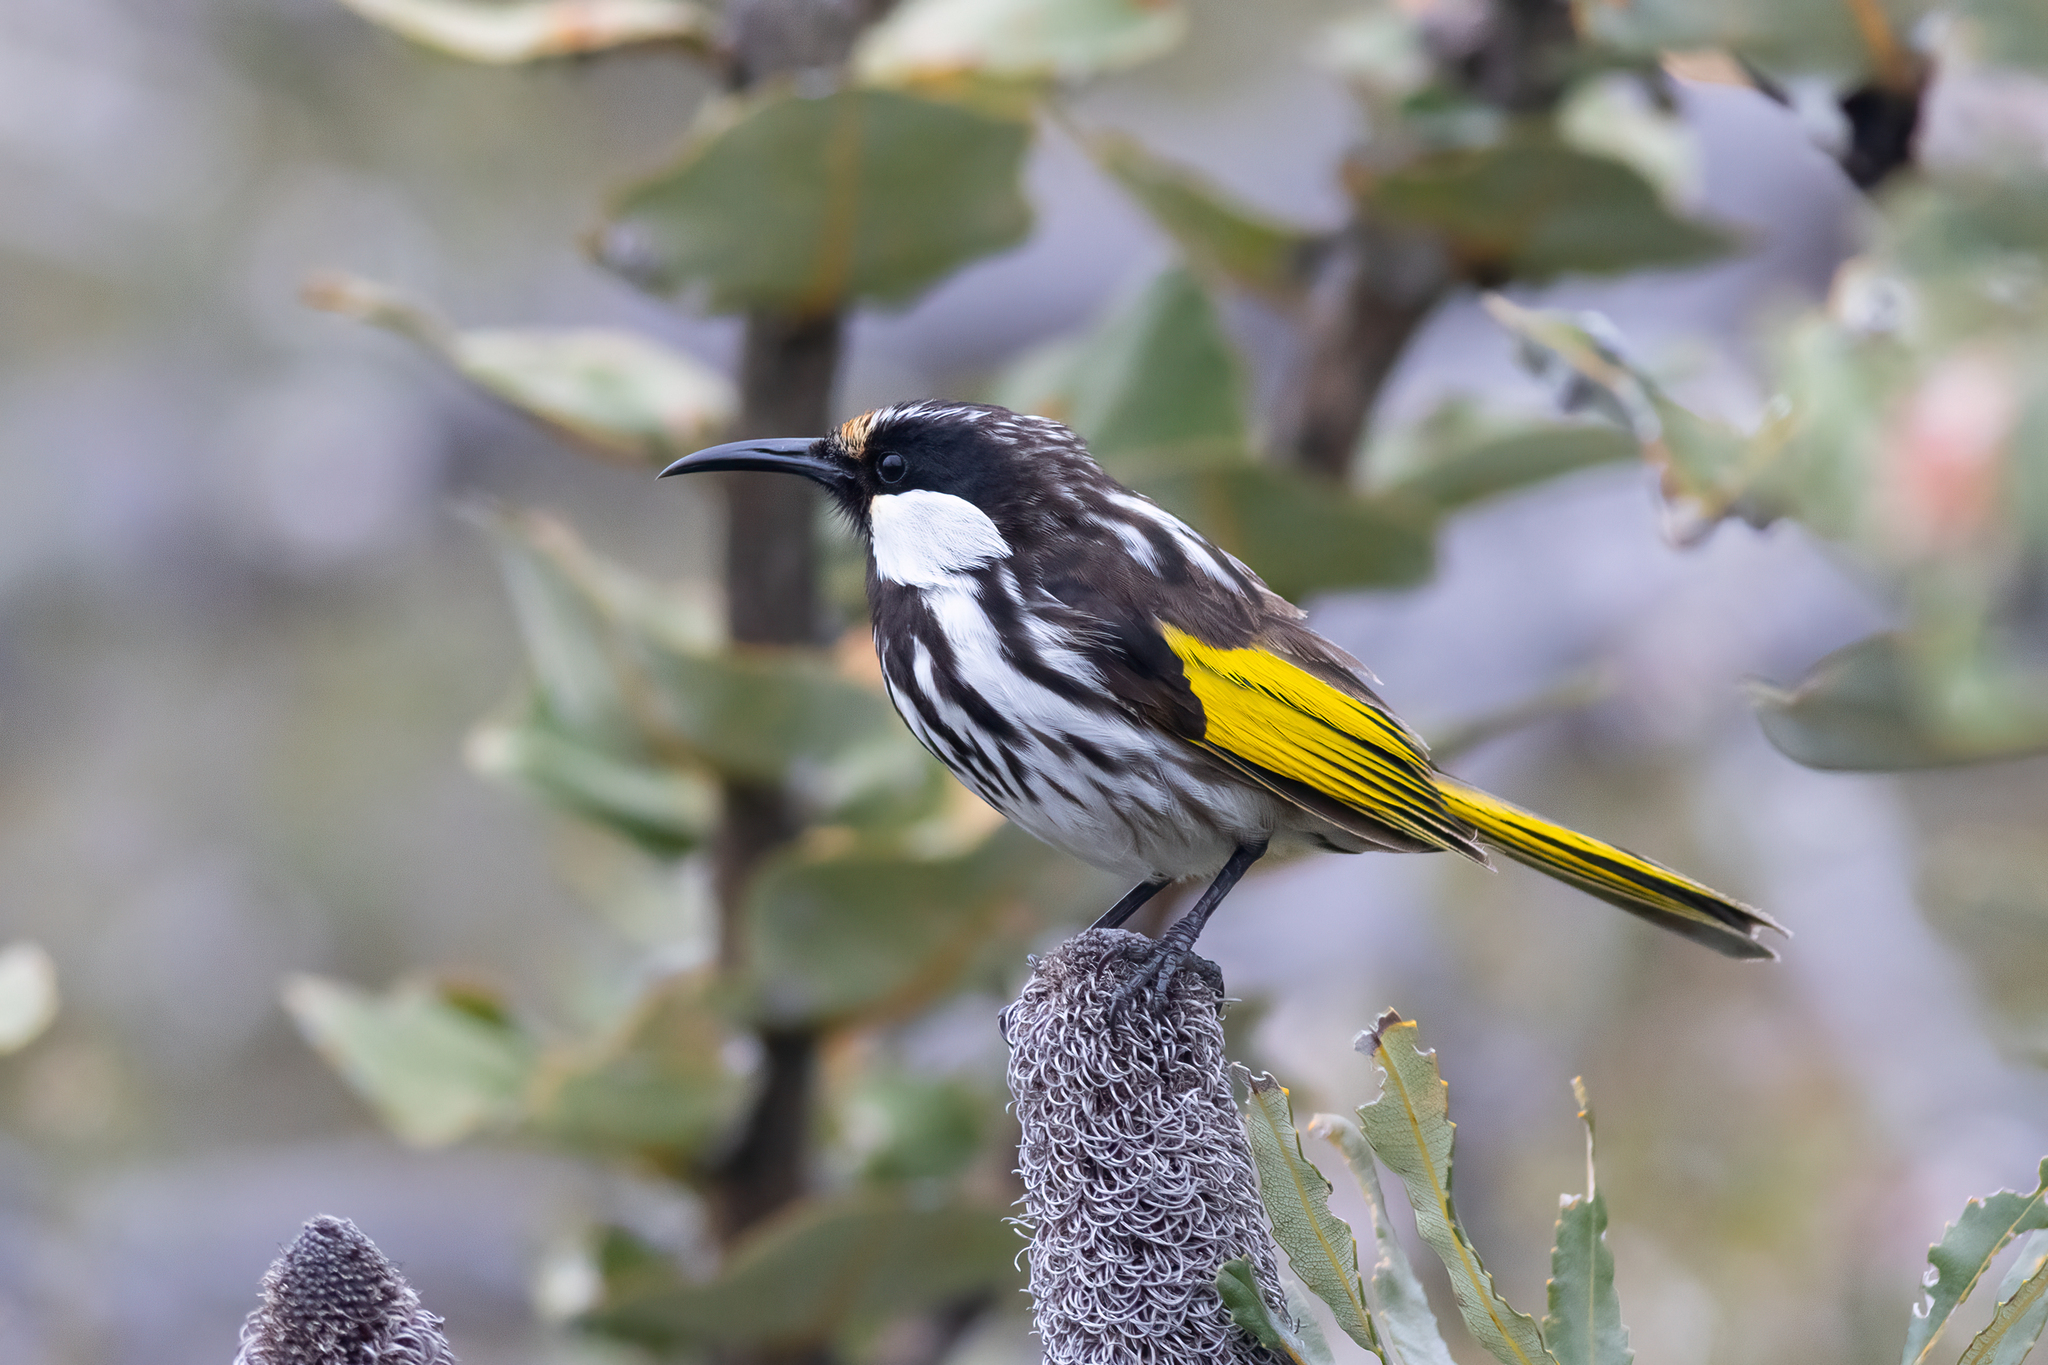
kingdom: Animalia
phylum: Chordata
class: Aves
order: Passeriformes
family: Meliphagidae
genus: Phylidonyris
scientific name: Phylidonyris niger
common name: White-cheeked honeyeater
